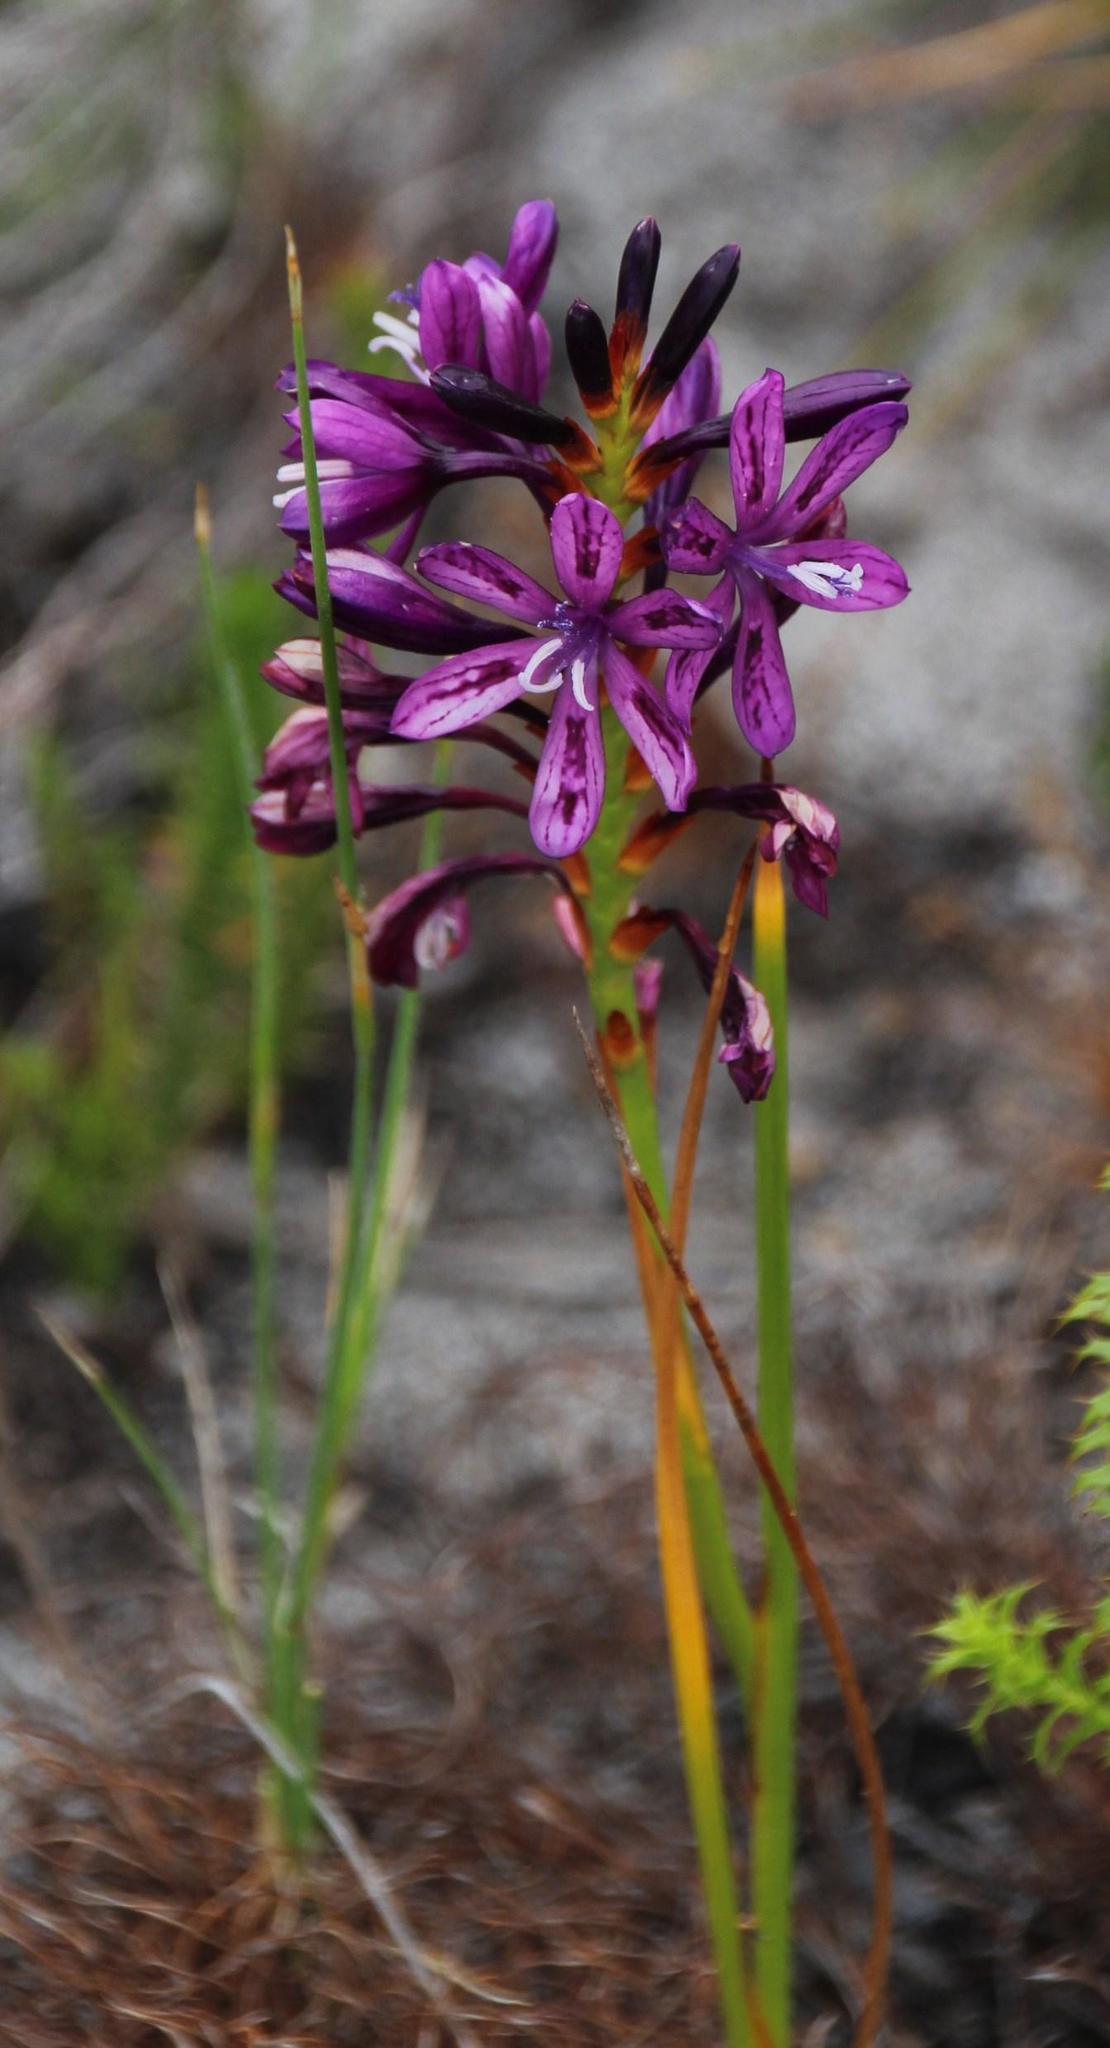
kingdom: Plantae
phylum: Tracheophyta
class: Liliopsida
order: Asparagales
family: Iridaceae
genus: Thereianthus
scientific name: Thereianthus bracteolatus
